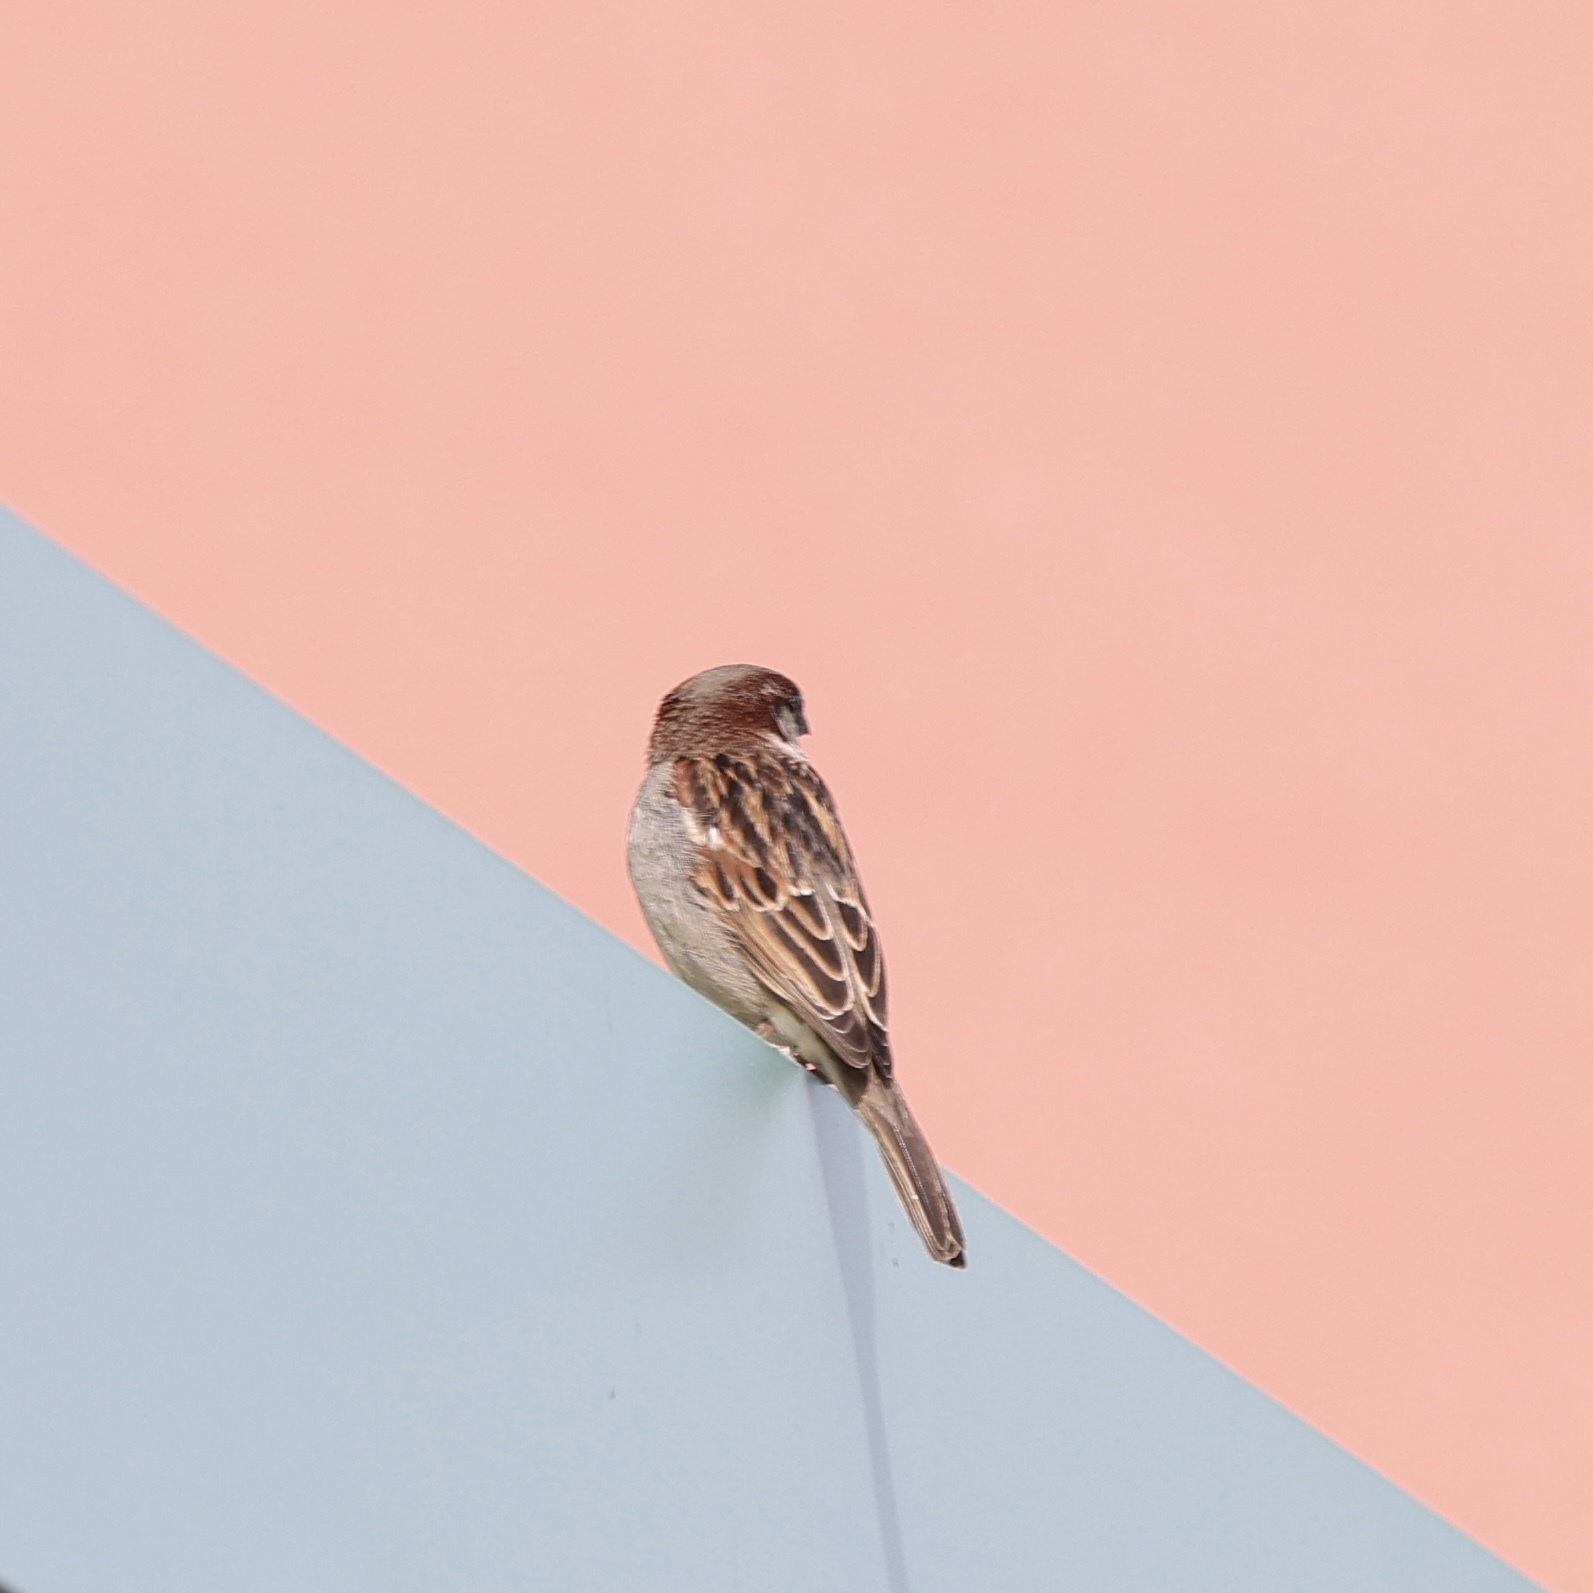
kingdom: Animalia
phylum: Chordata
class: Aves
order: Passeriformes
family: Passeridae
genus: Passer
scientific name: Passer domesticus
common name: House sparrow
